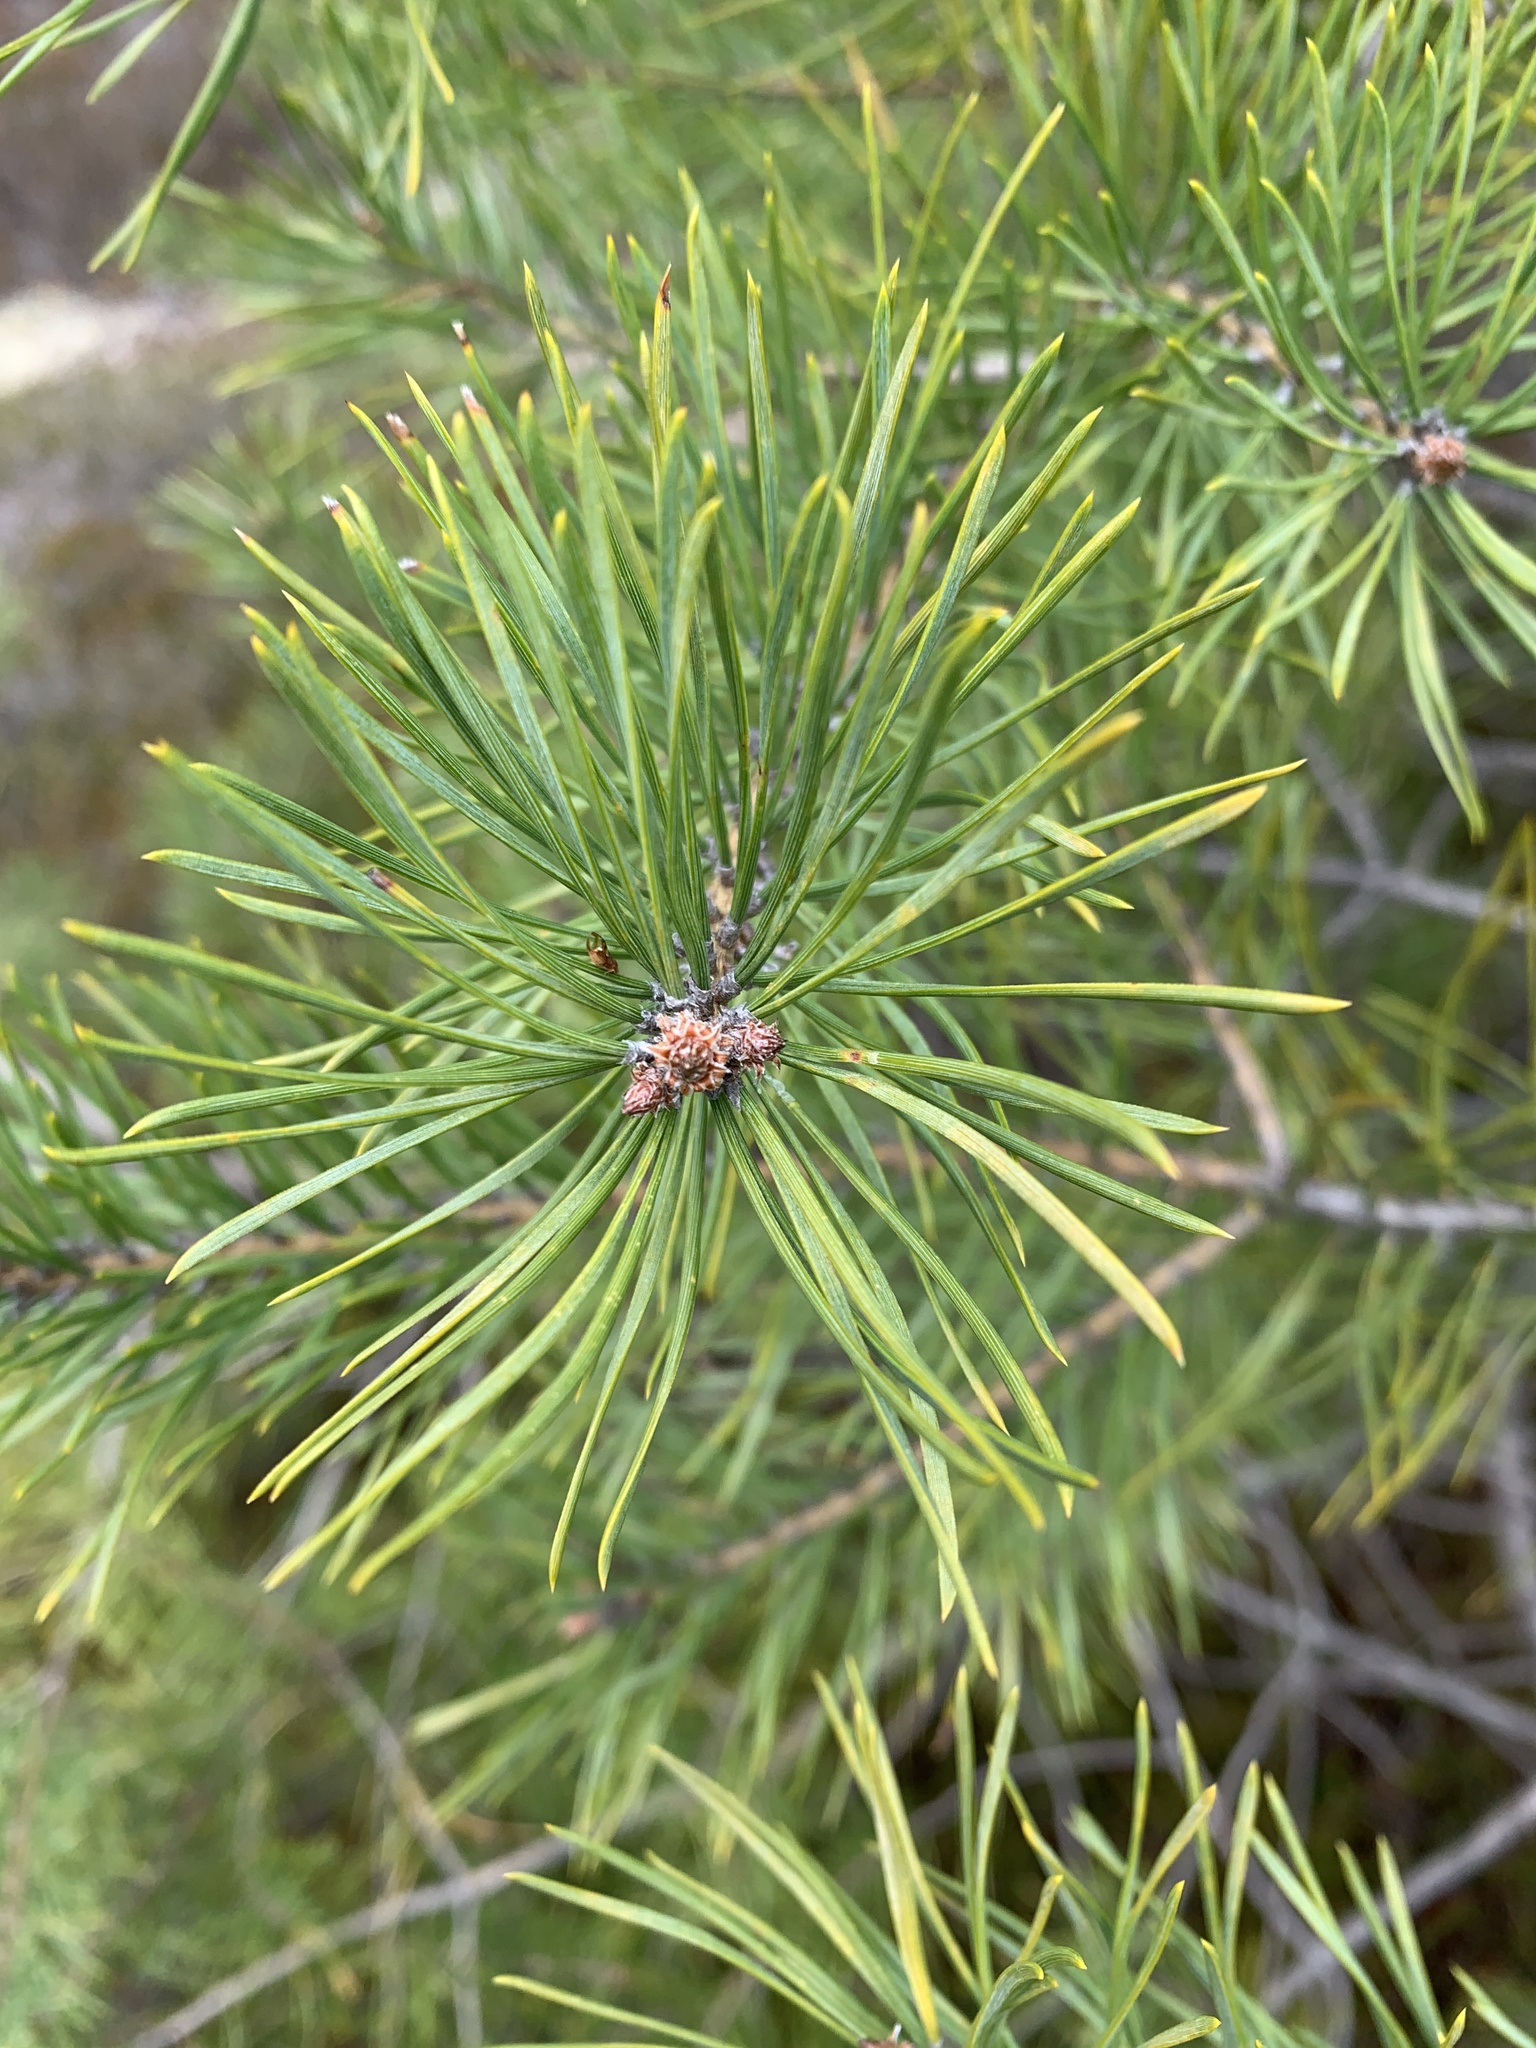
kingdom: Plantae
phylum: Tracheophyta
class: Pinopsida
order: Pinales
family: Pinaceae
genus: Pinus
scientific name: Pinus sylvestris
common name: Scots pine
